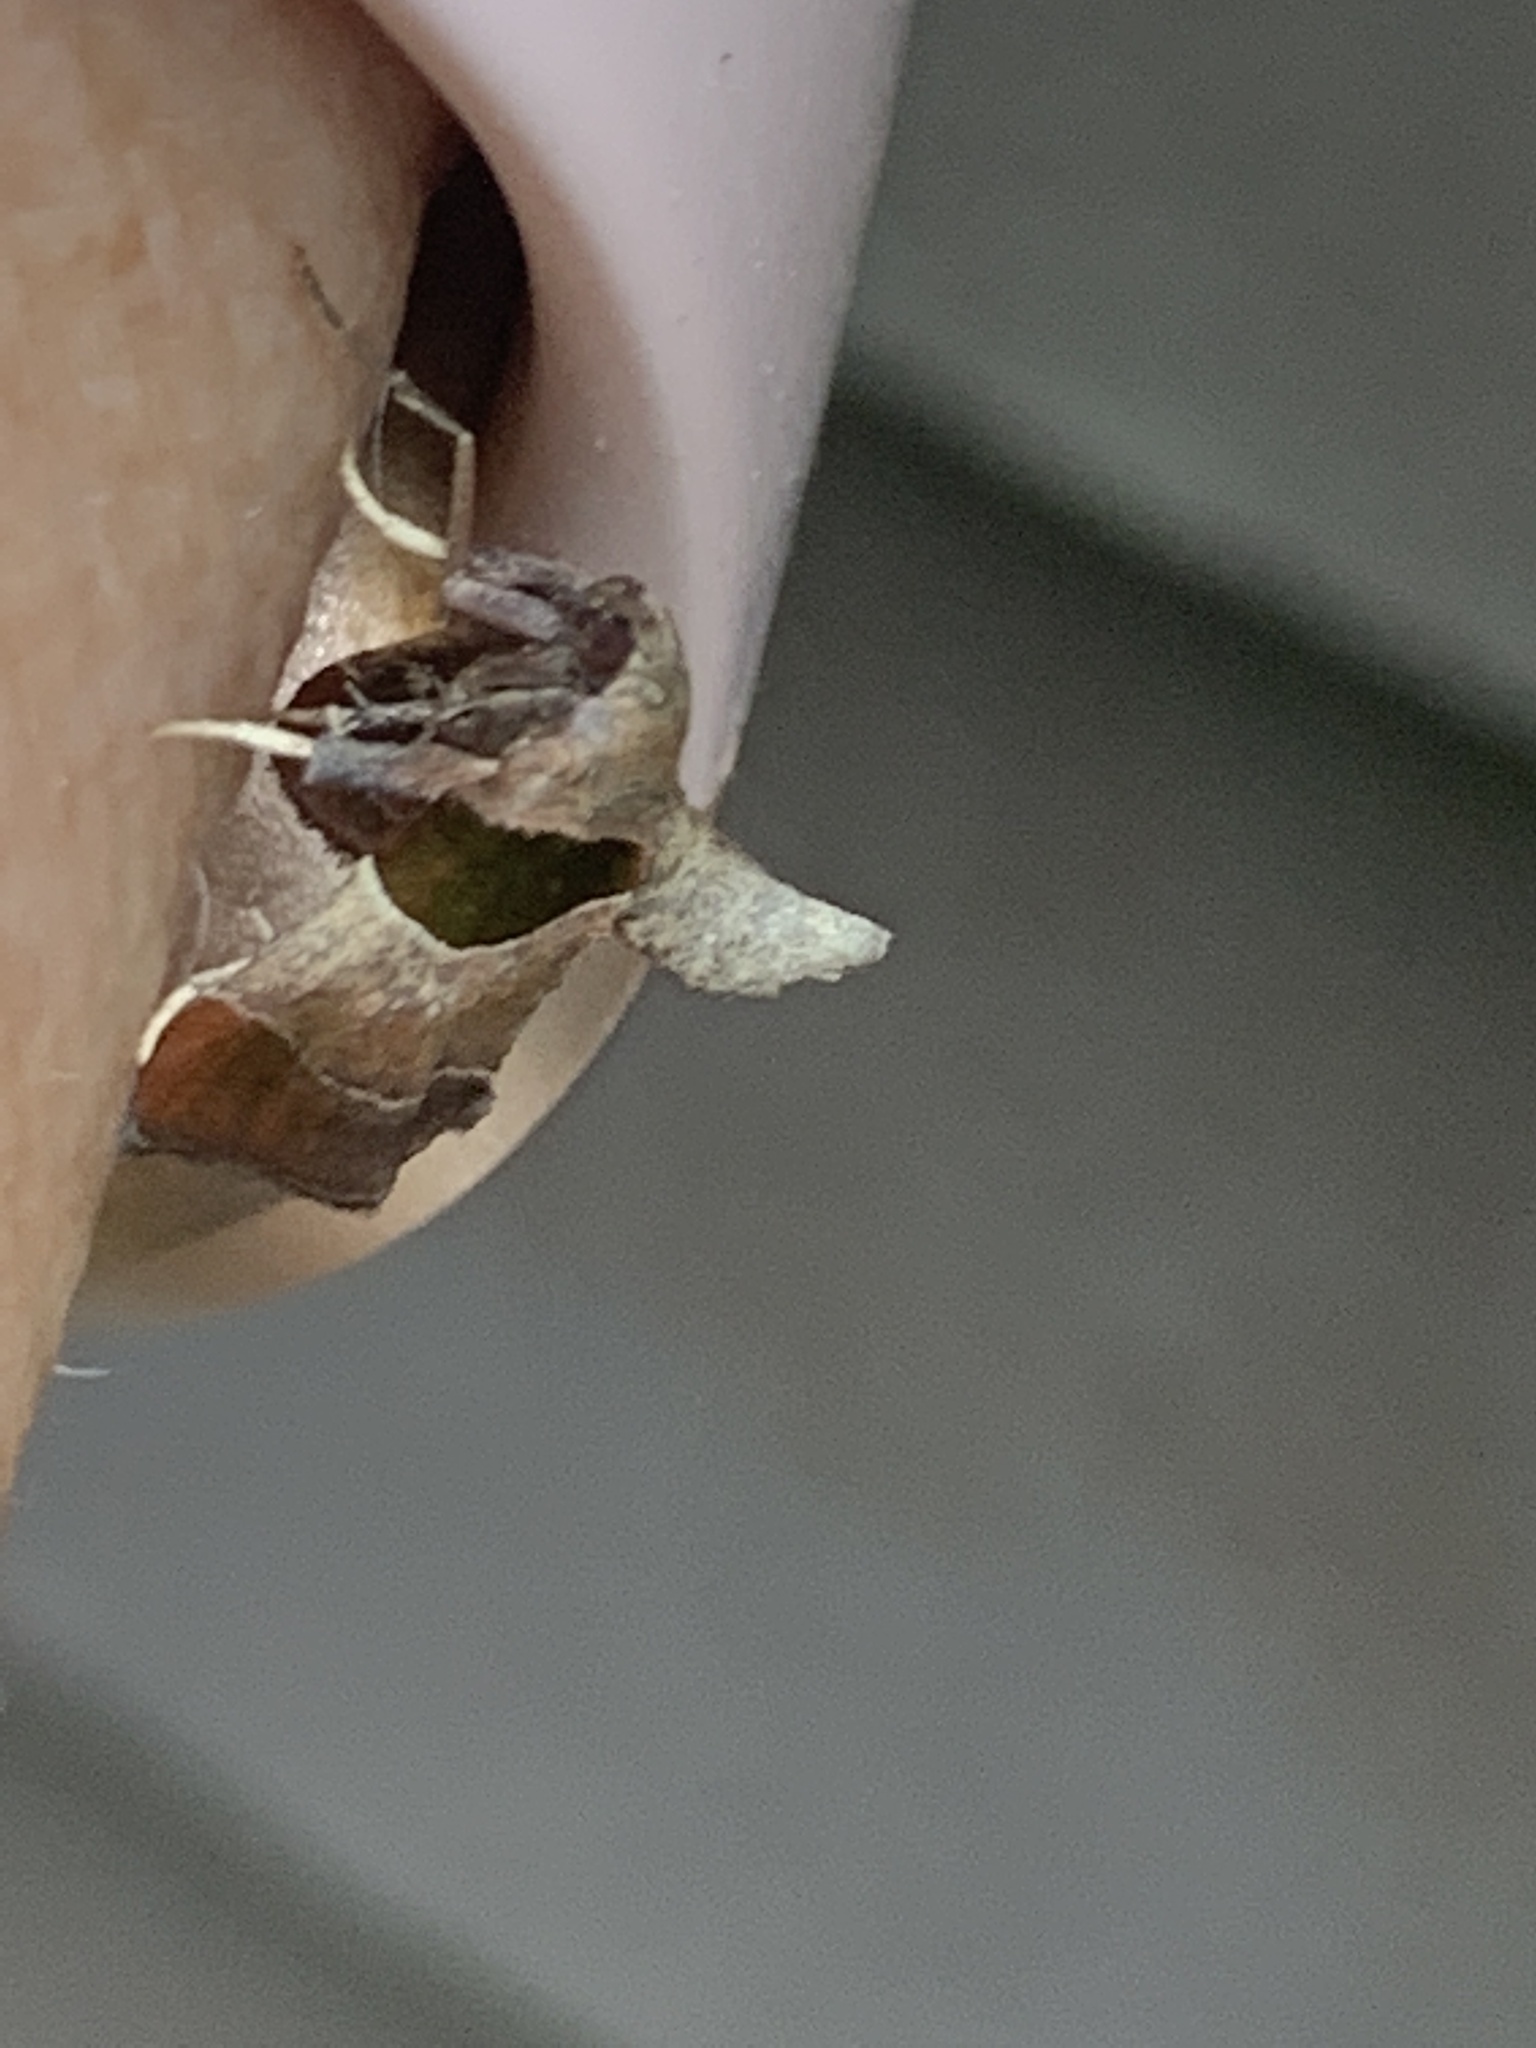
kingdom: Animalia
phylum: Arthropoda
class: Insecta
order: Lepidoptera
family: Pyralidae
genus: Tosale
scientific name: Tosale oviplagalis
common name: Dimorphic tosale moth
